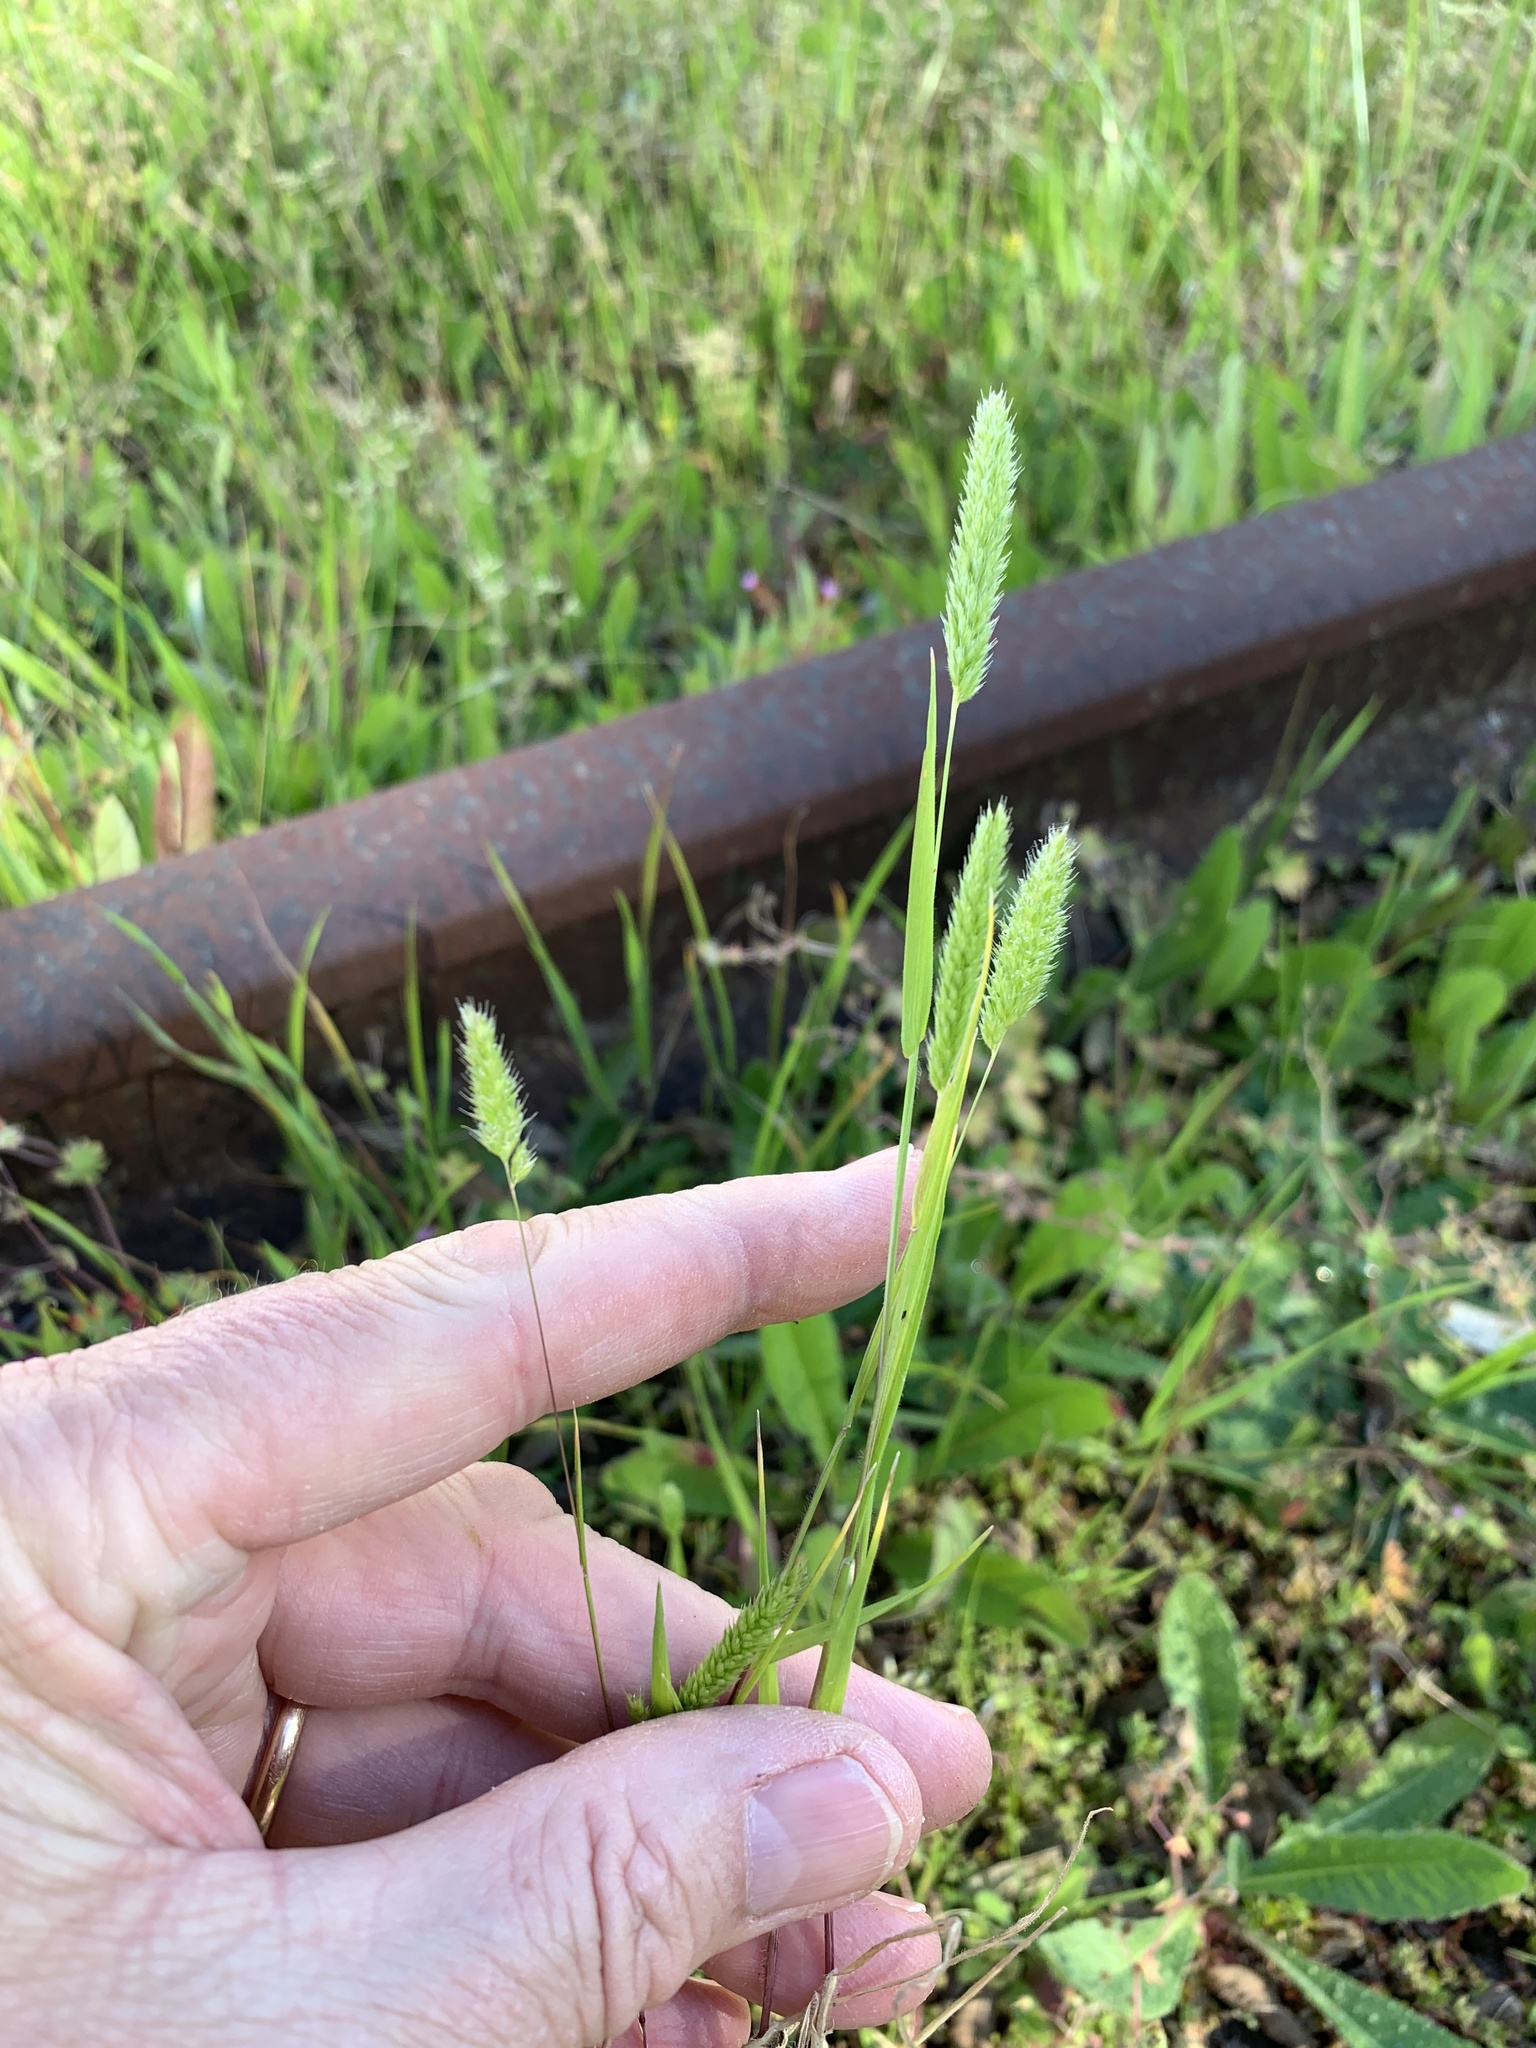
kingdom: Plantae
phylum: Tracheophyta
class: Liliopsida
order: Poales
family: Poaceae
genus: Rostraria
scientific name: Rostraria cristata
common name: Mediterranean hair-grass
